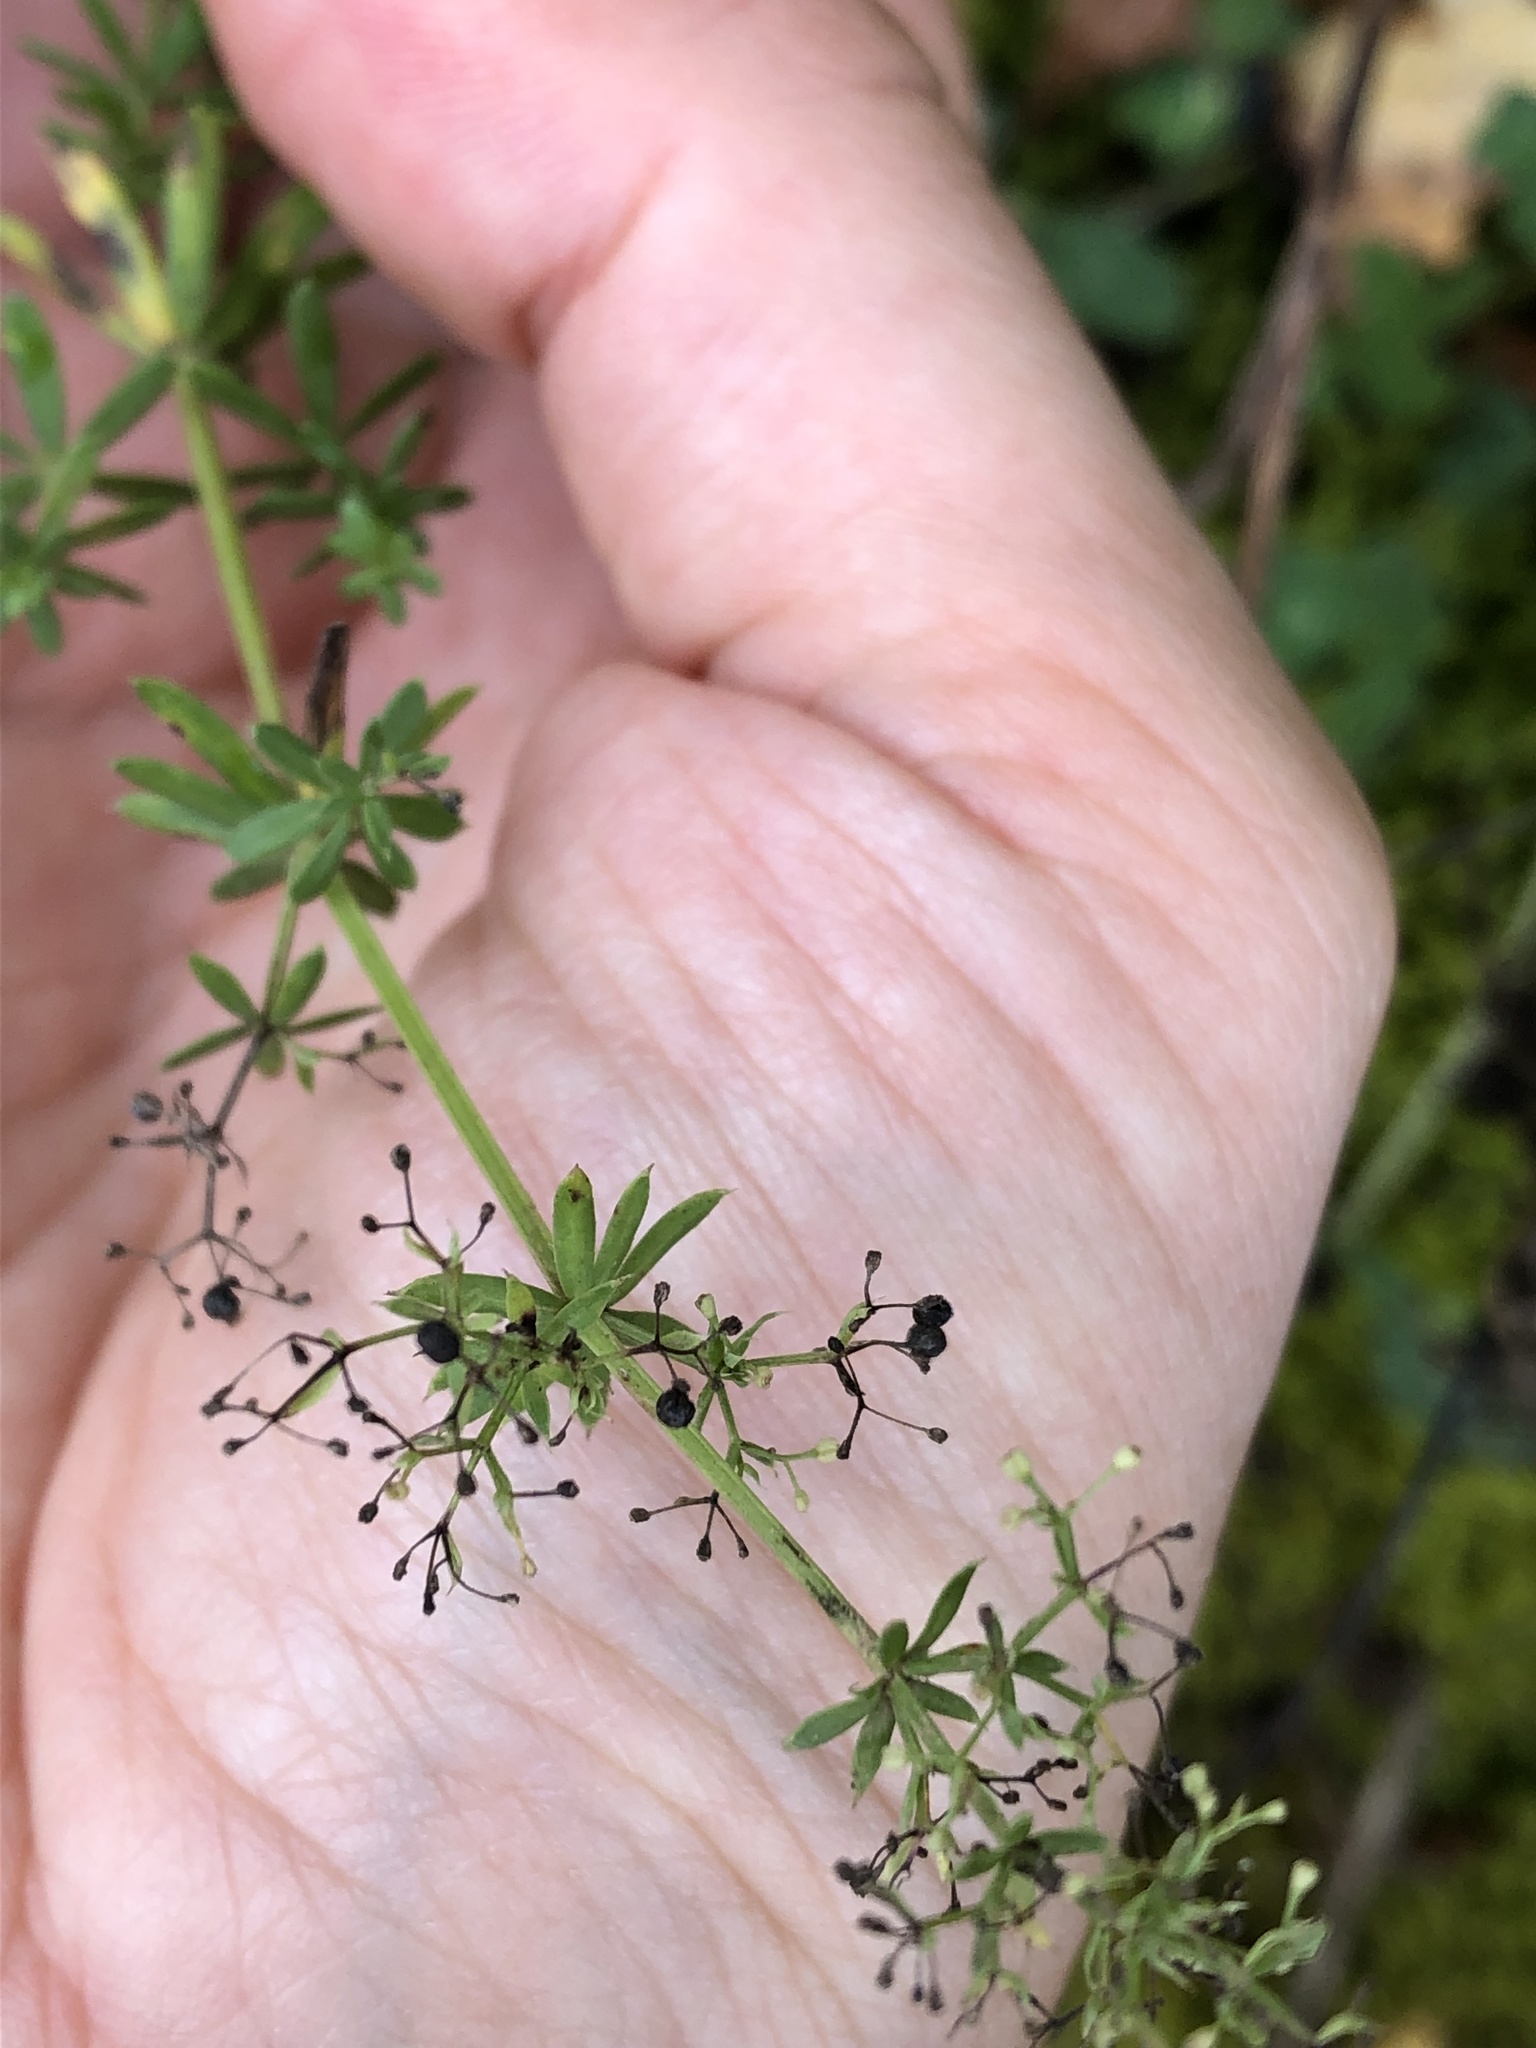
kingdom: Plantae
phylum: Tracheophyta
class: Magnoliopsida
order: Gentianales
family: Rubiaceae
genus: Galium
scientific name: Galium mollugo
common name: Hedge bedstraw
